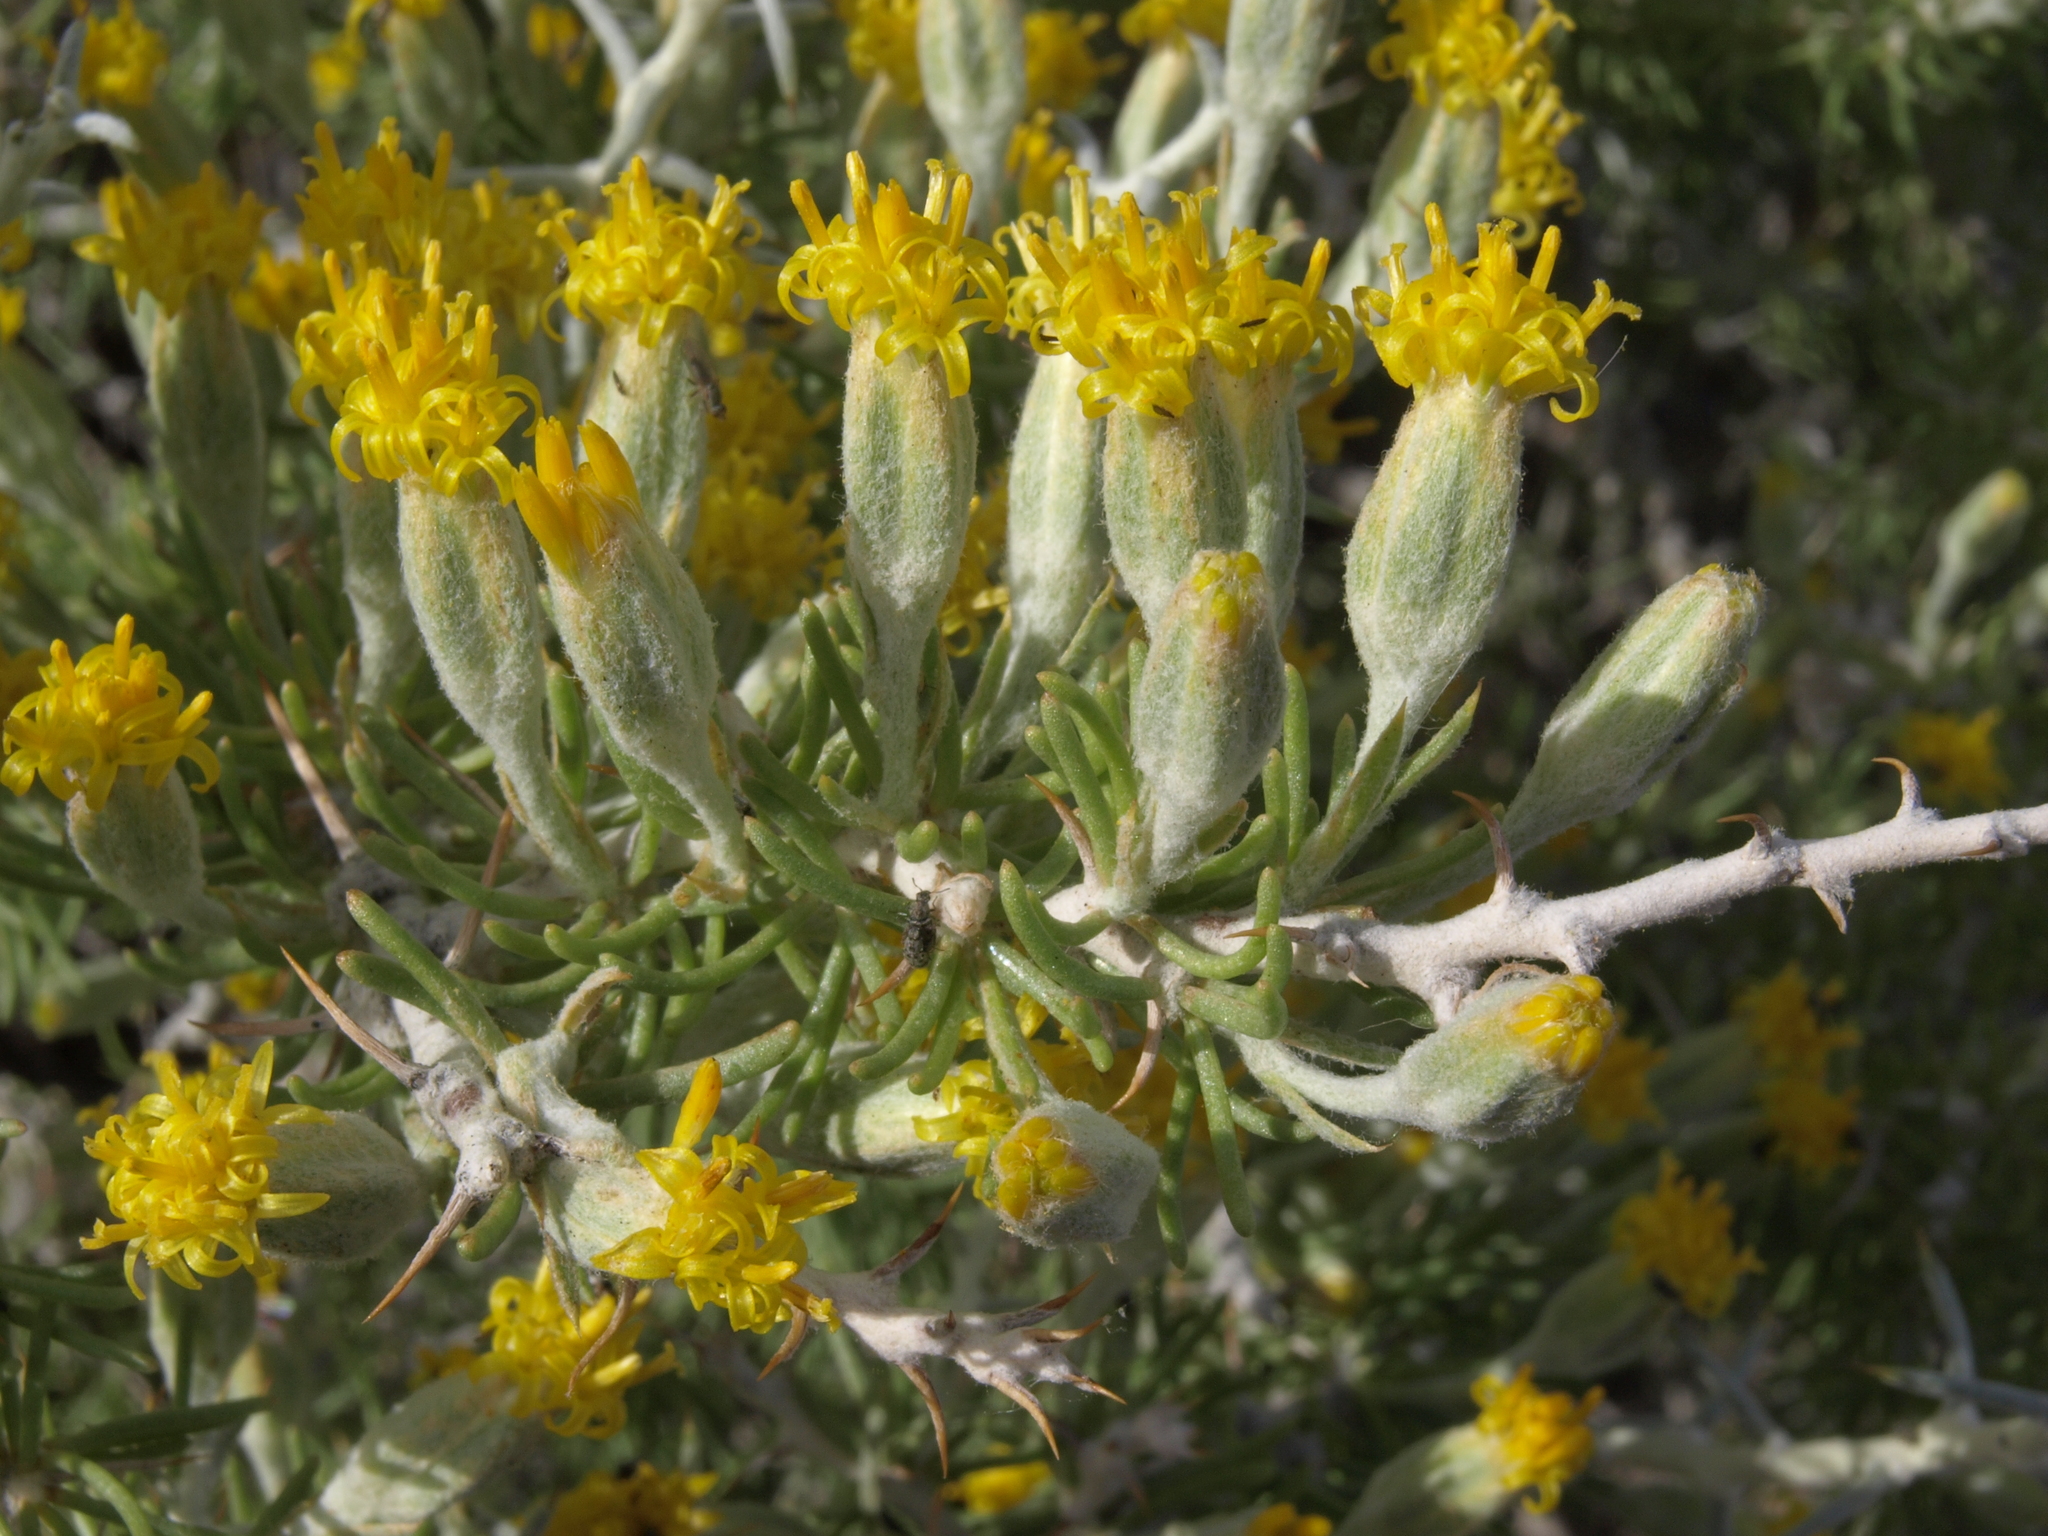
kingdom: Plantae
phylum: Tracheophyta
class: Magnoliopsida
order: Asterales
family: Asteraceae
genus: Tetradymia
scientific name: Tetradymia spinosa
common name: Thorny horsebrush
